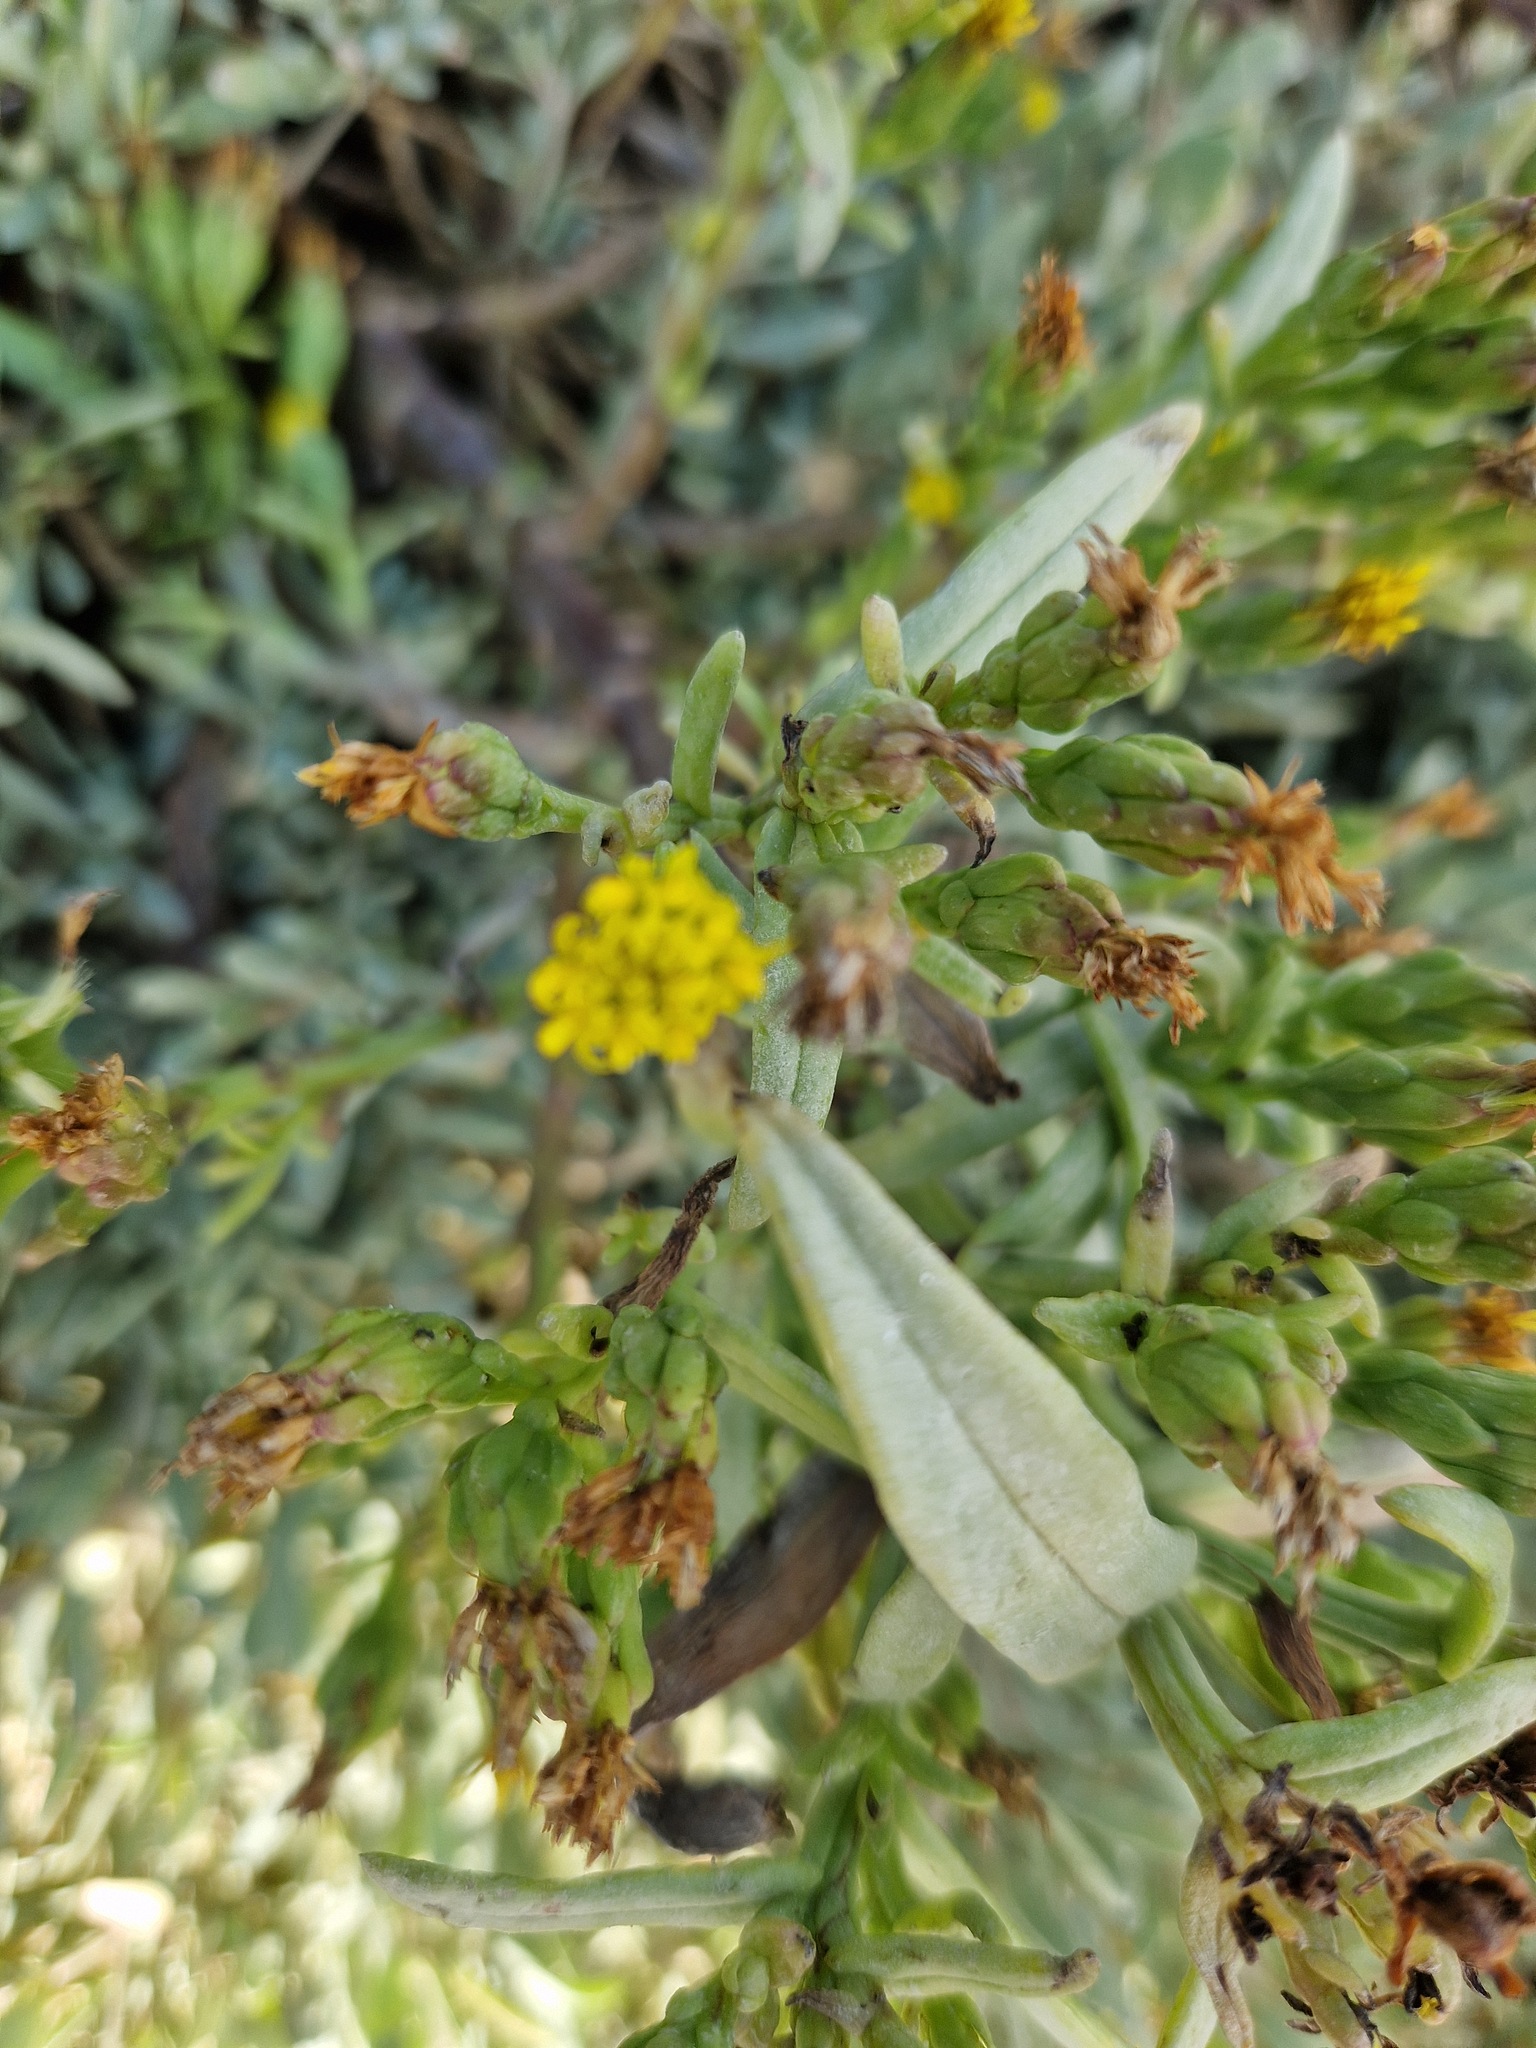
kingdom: Plantae
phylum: Tracheophyta
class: Magnoliopsida
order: Asterales
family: Asteraceae
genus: Tripolium
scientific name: Tripolium pannonicum
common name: Sea aster
